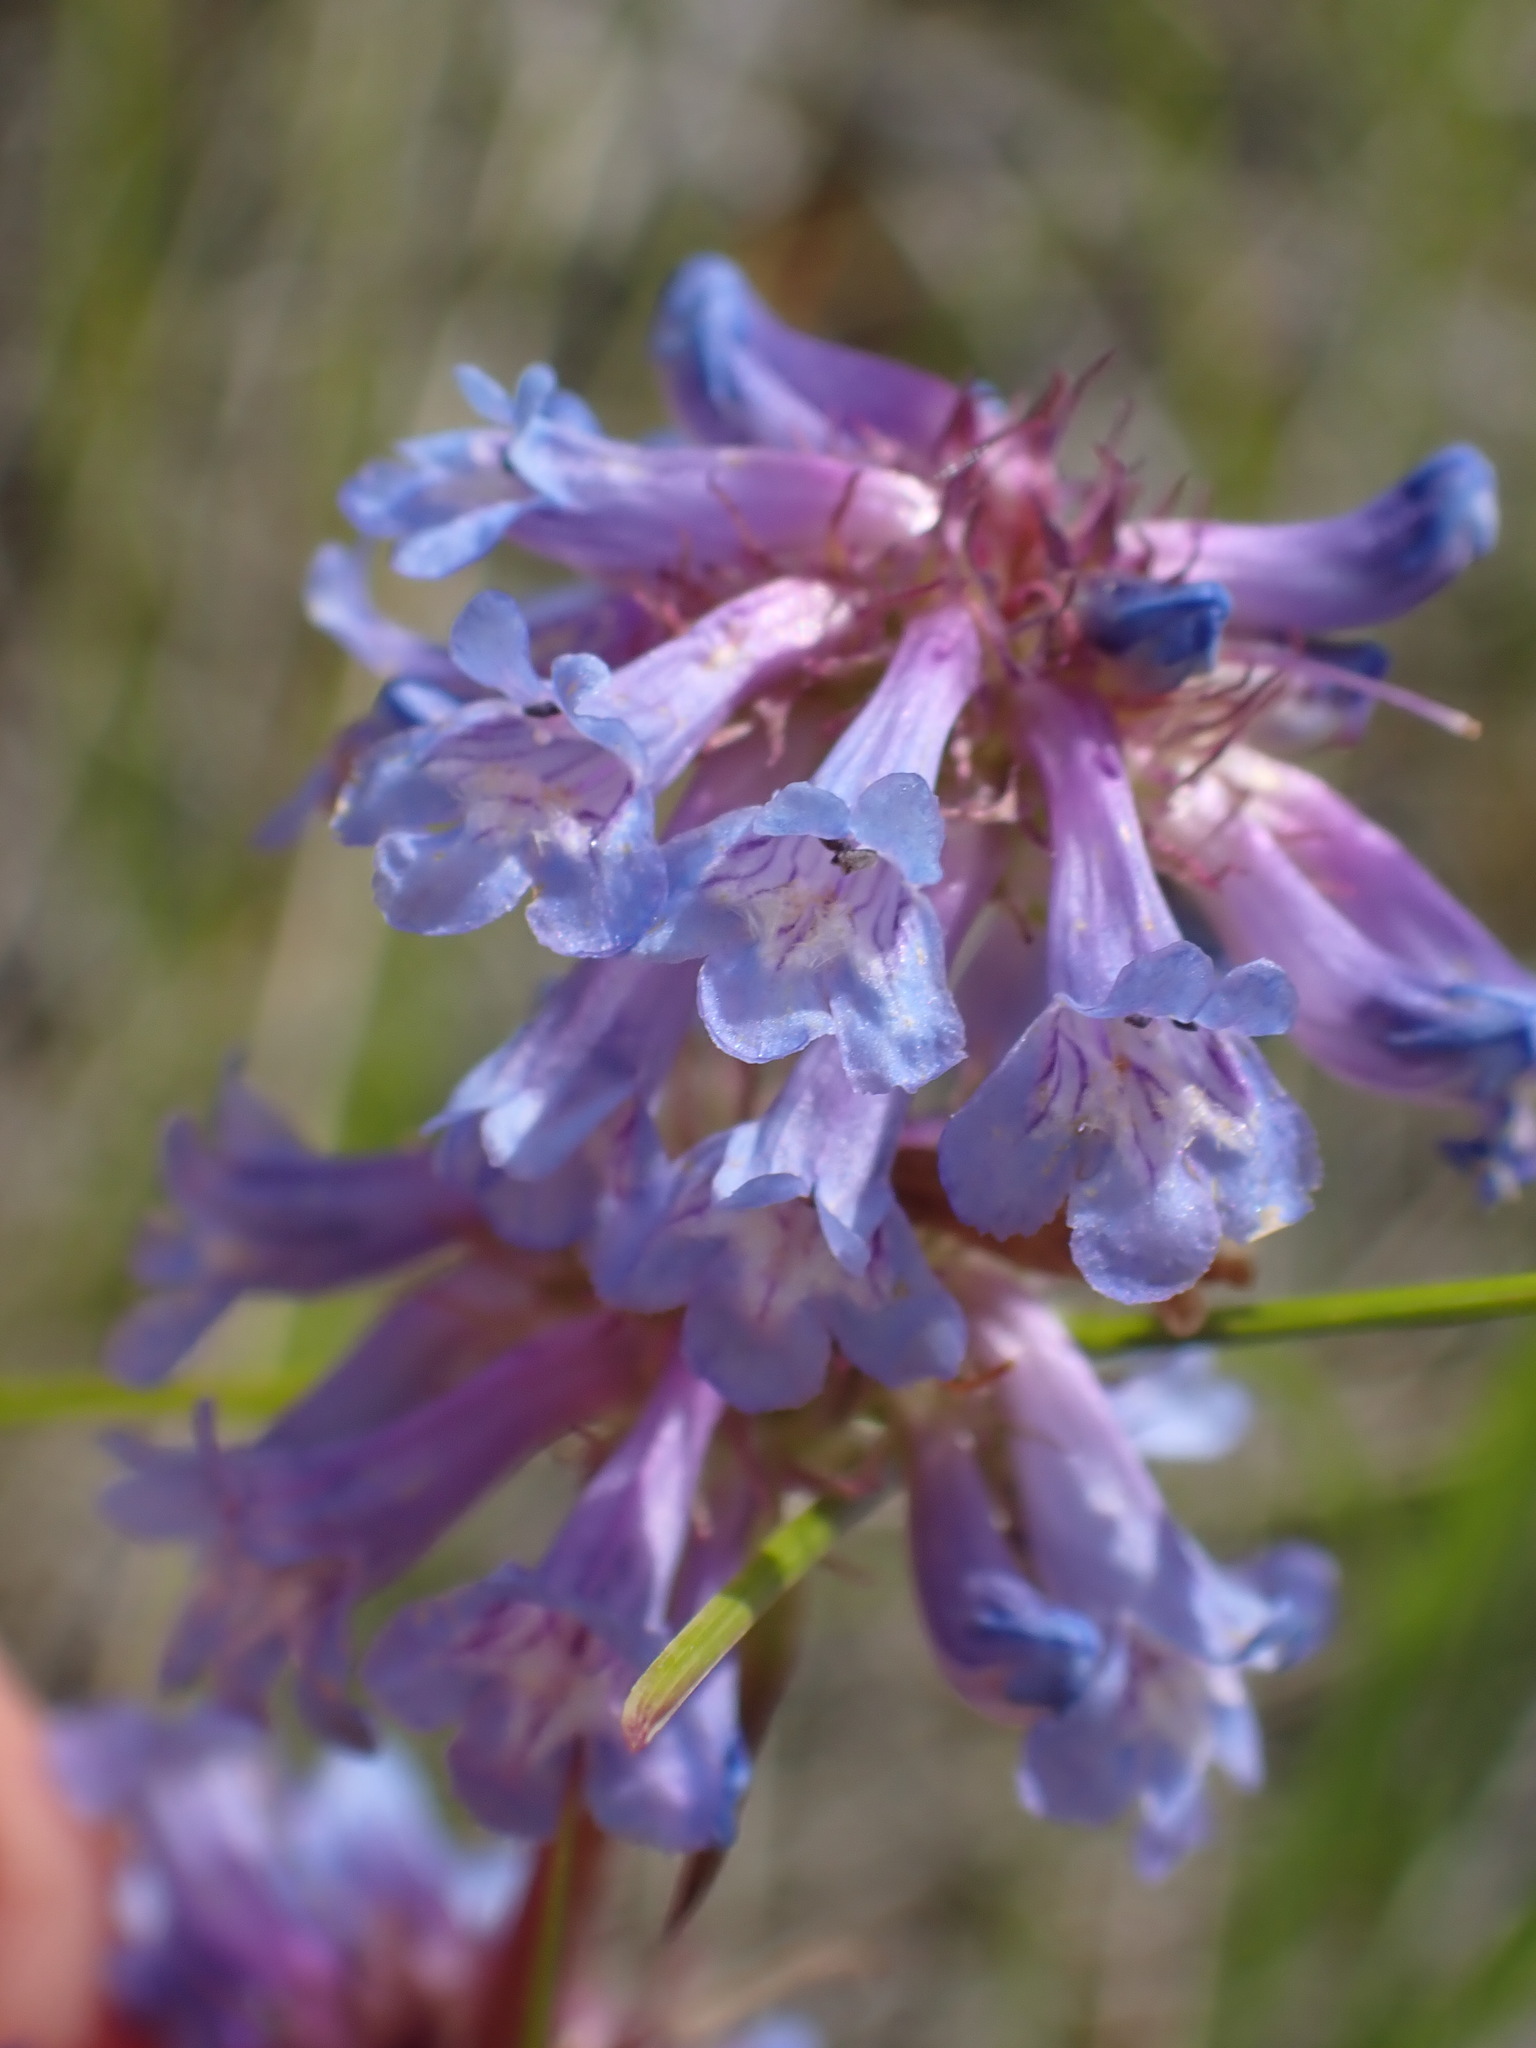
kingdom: Plantae
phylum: Tracheophyta
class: Magnoliopsida
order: Lamiales
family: Plantaginaceae
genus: Penstemon
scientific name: Penstemon procerus
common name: Small-flower penstemon
